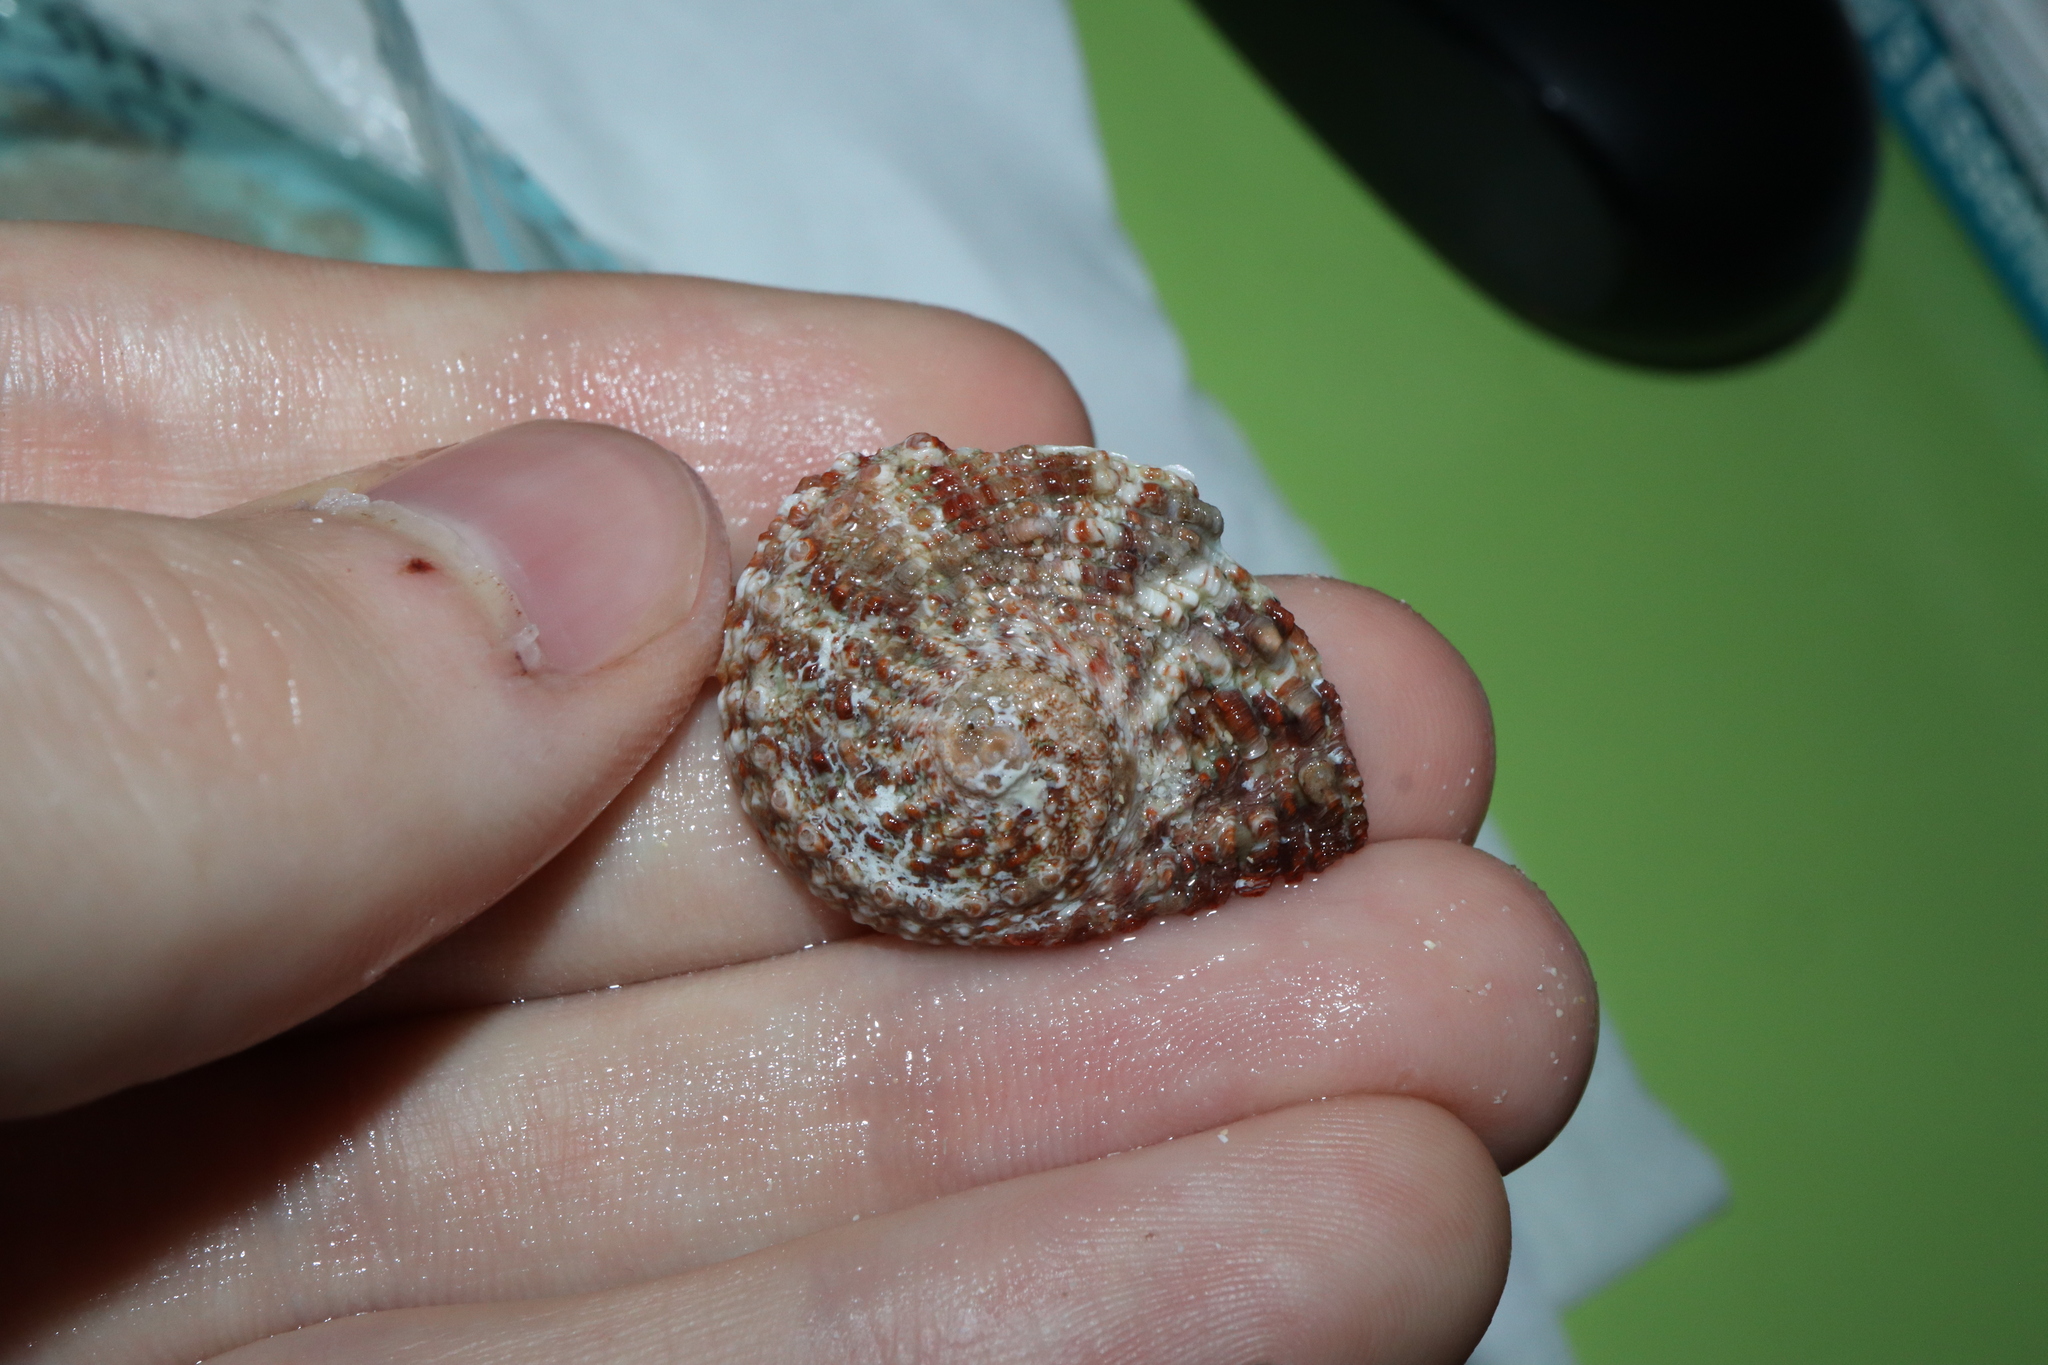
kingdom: Animalia
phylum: Mollusca
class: Gastropoda
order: Lepetellida
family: Haliotidae
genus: Haliotis
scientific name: Haliotis roei
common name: Roe's abalone
